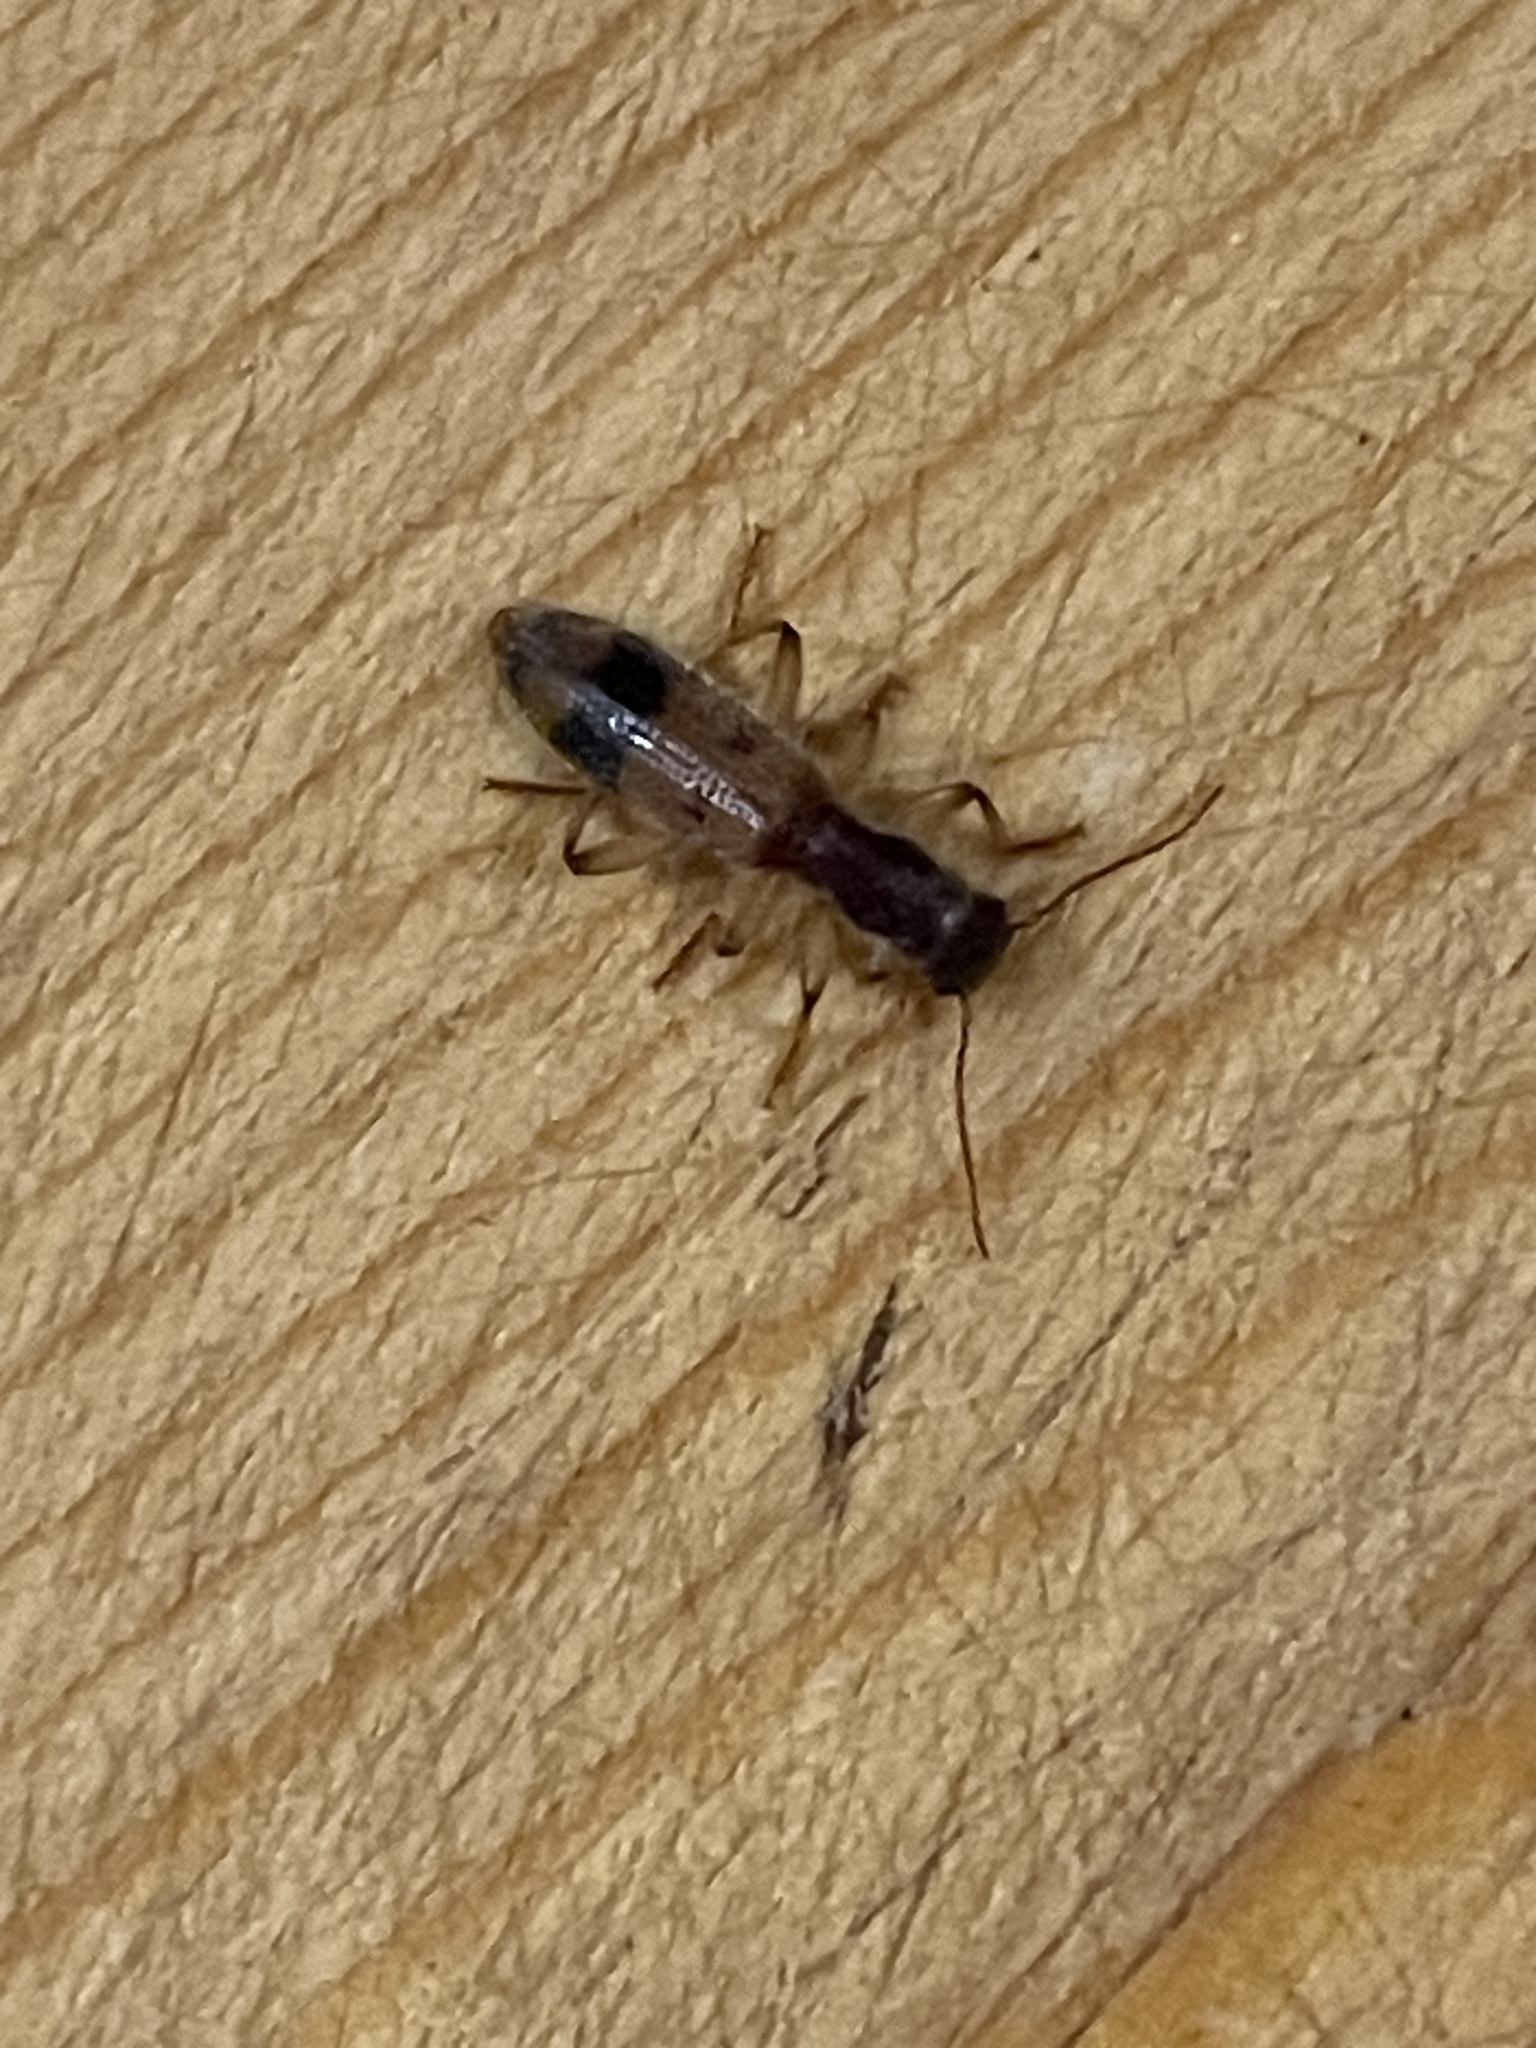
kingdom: Animalia
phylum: Arthropoda
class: Insecta
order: Coleoptera
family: Cleridae
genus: Cymatodera
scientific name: Cymatodera balteata
